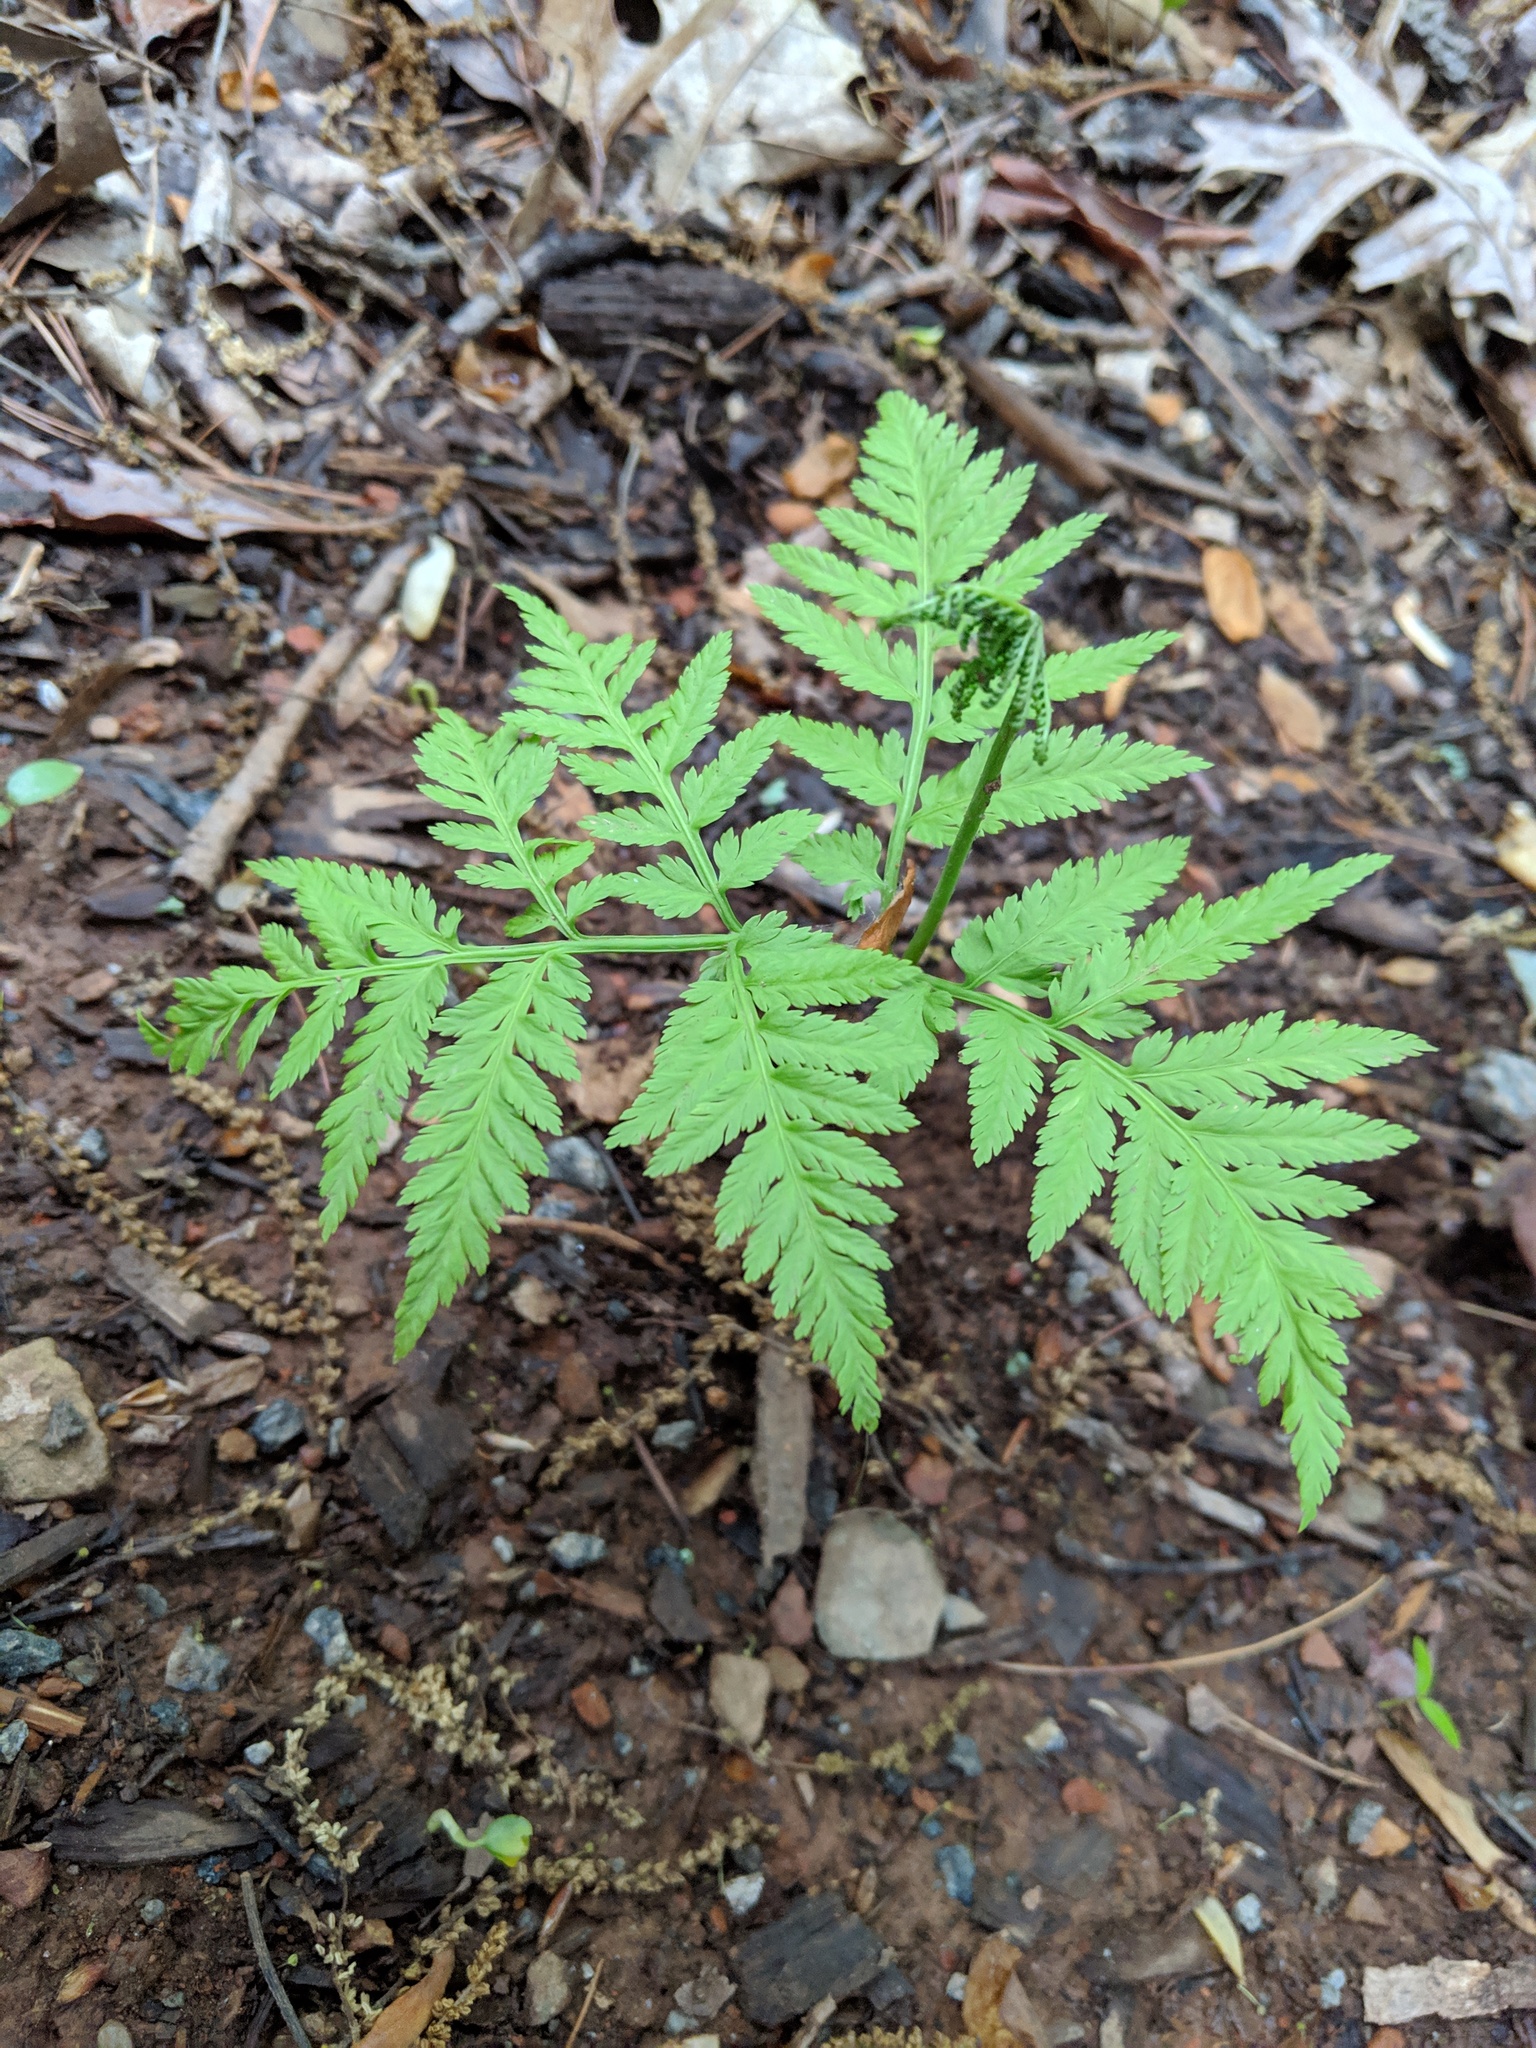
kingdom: Plantae
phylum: Tracheophyta
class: Polypodiopsida
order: Ophioglossales
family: Ophioglossaceae
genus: Botrypus
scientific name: Botrypus virginianus
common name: Common grapefern
